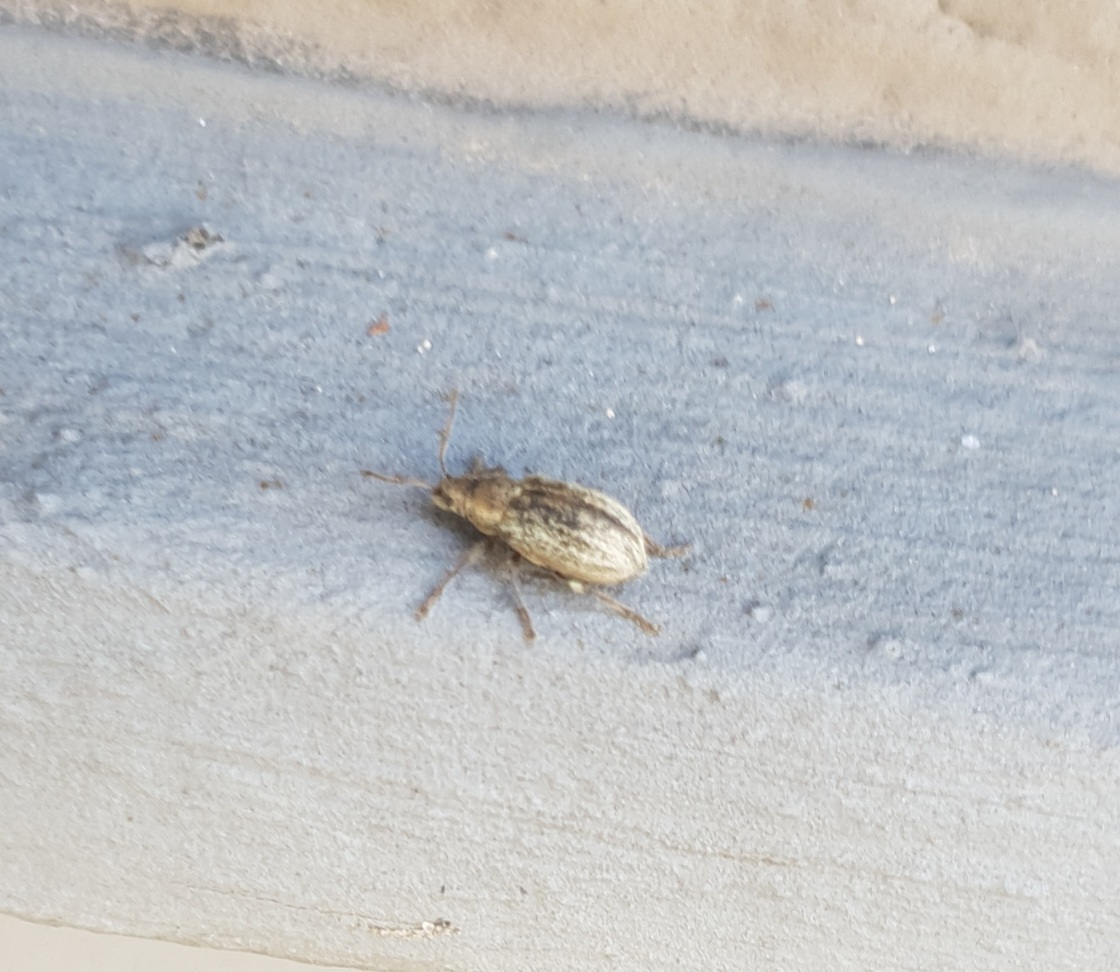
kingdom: Animalia
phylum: Arthropoda
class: Insecta
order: Coleoptera
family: Curculionidae
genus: Phyllobius
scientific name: Phyllobius pyri
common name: Common leaf weevil
